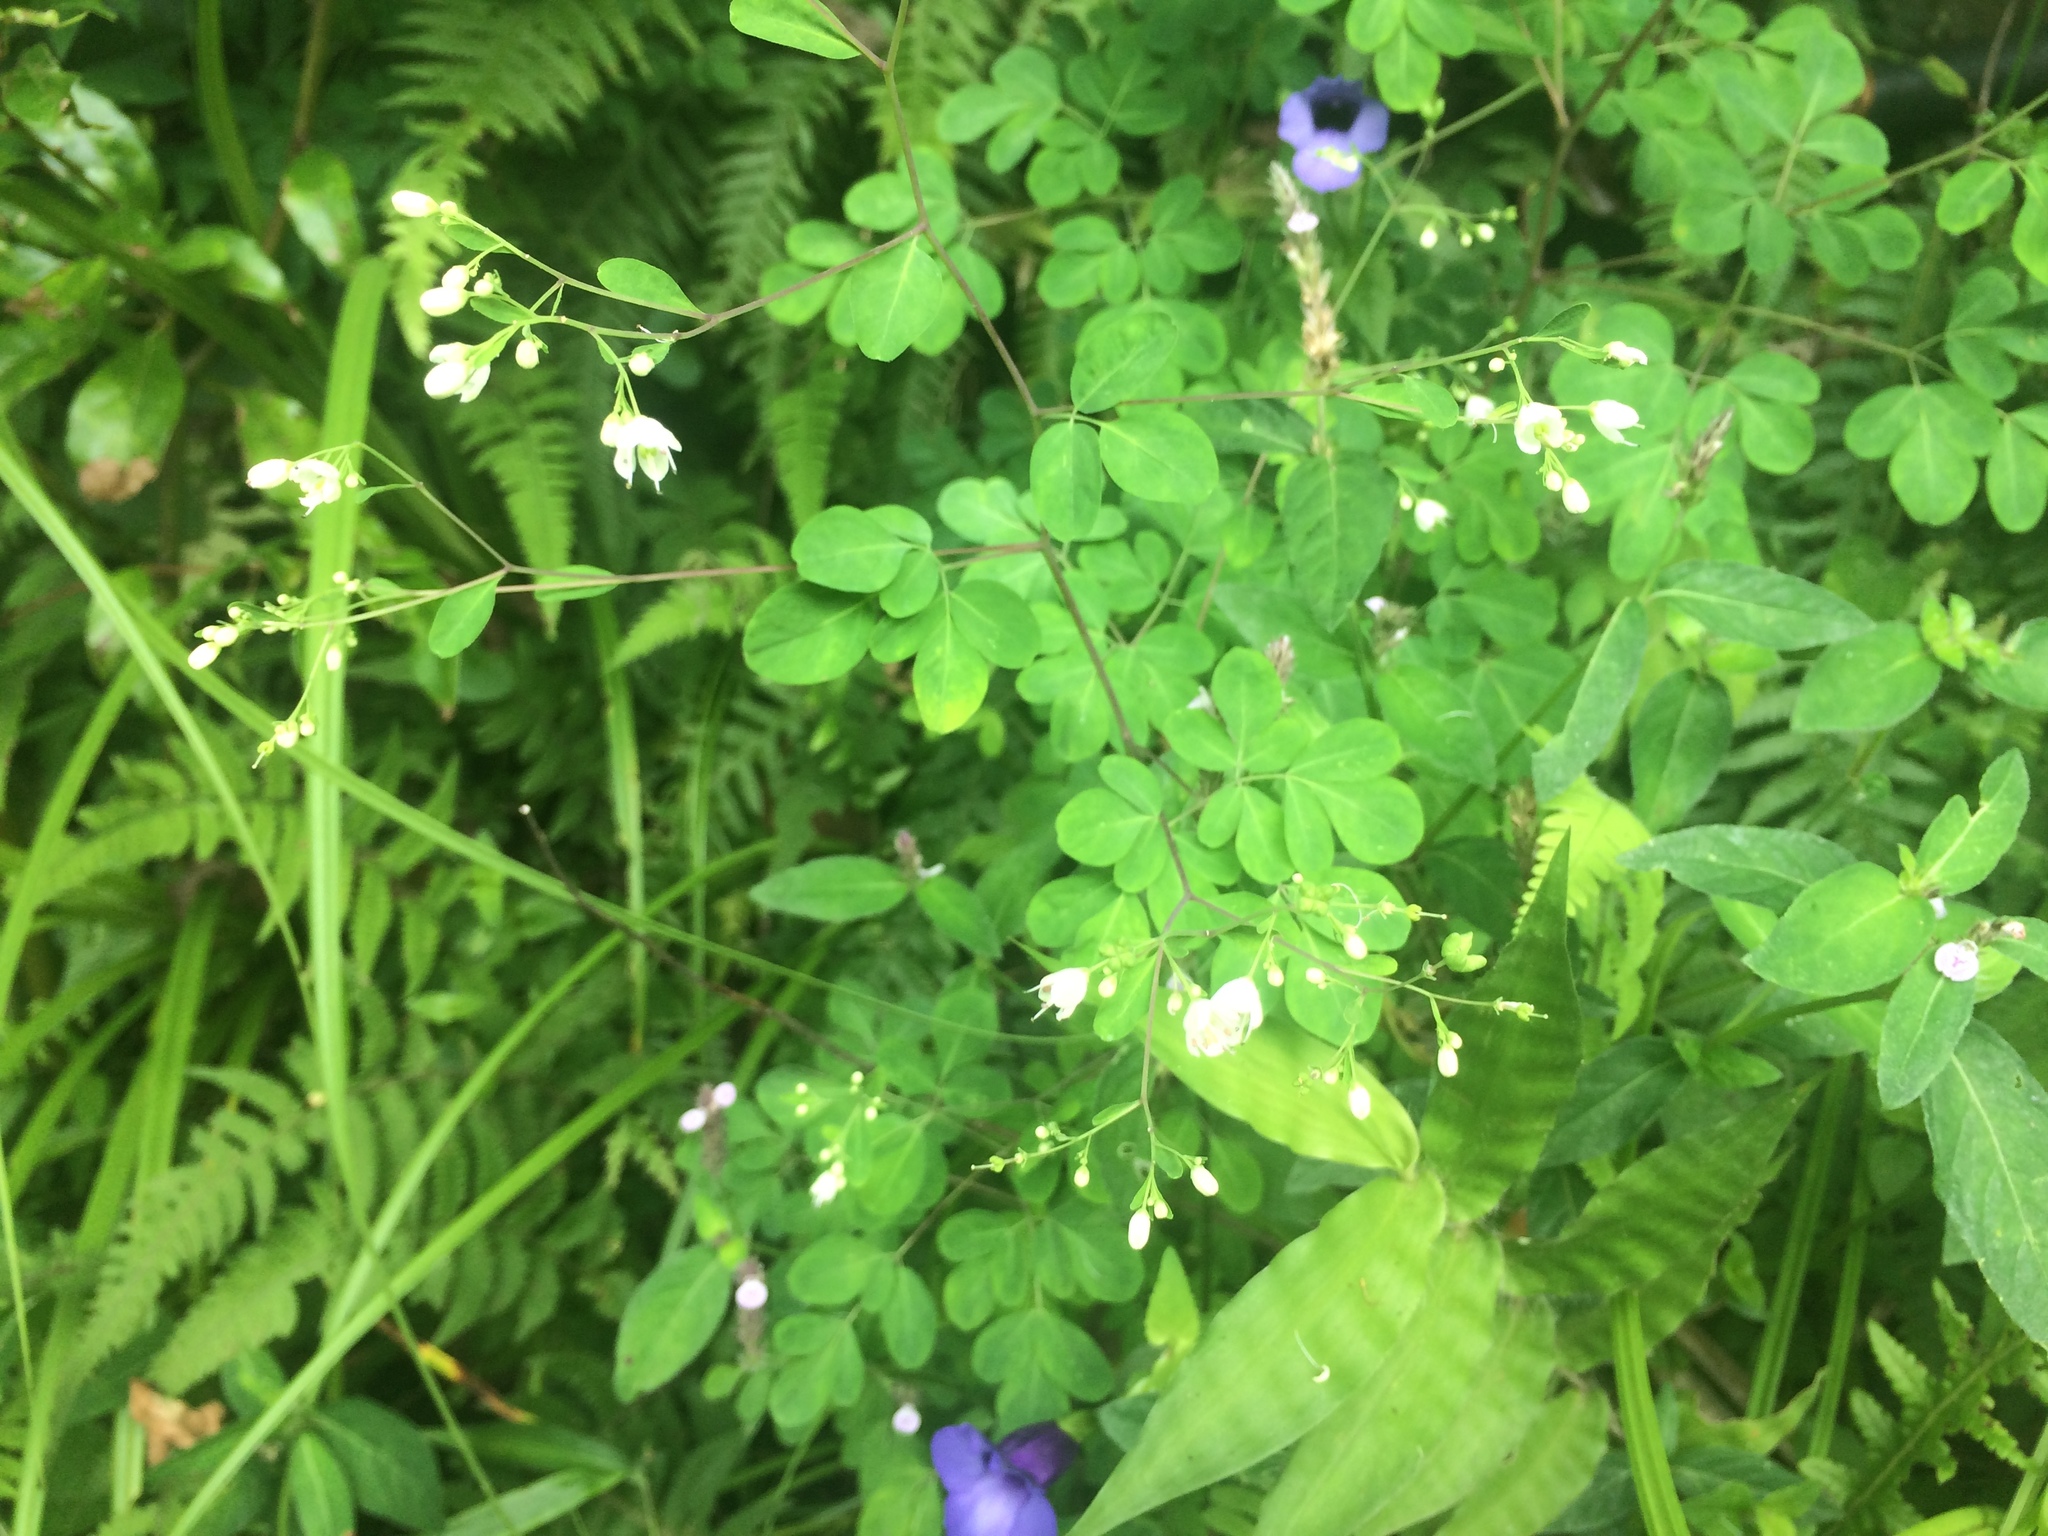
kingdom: Plantae
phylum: Tracheophyta
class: Magnoliopsida
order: Sapindales
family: Rutaceae
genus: Boenninghausenia
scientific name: Boenninghausenia albiflora
